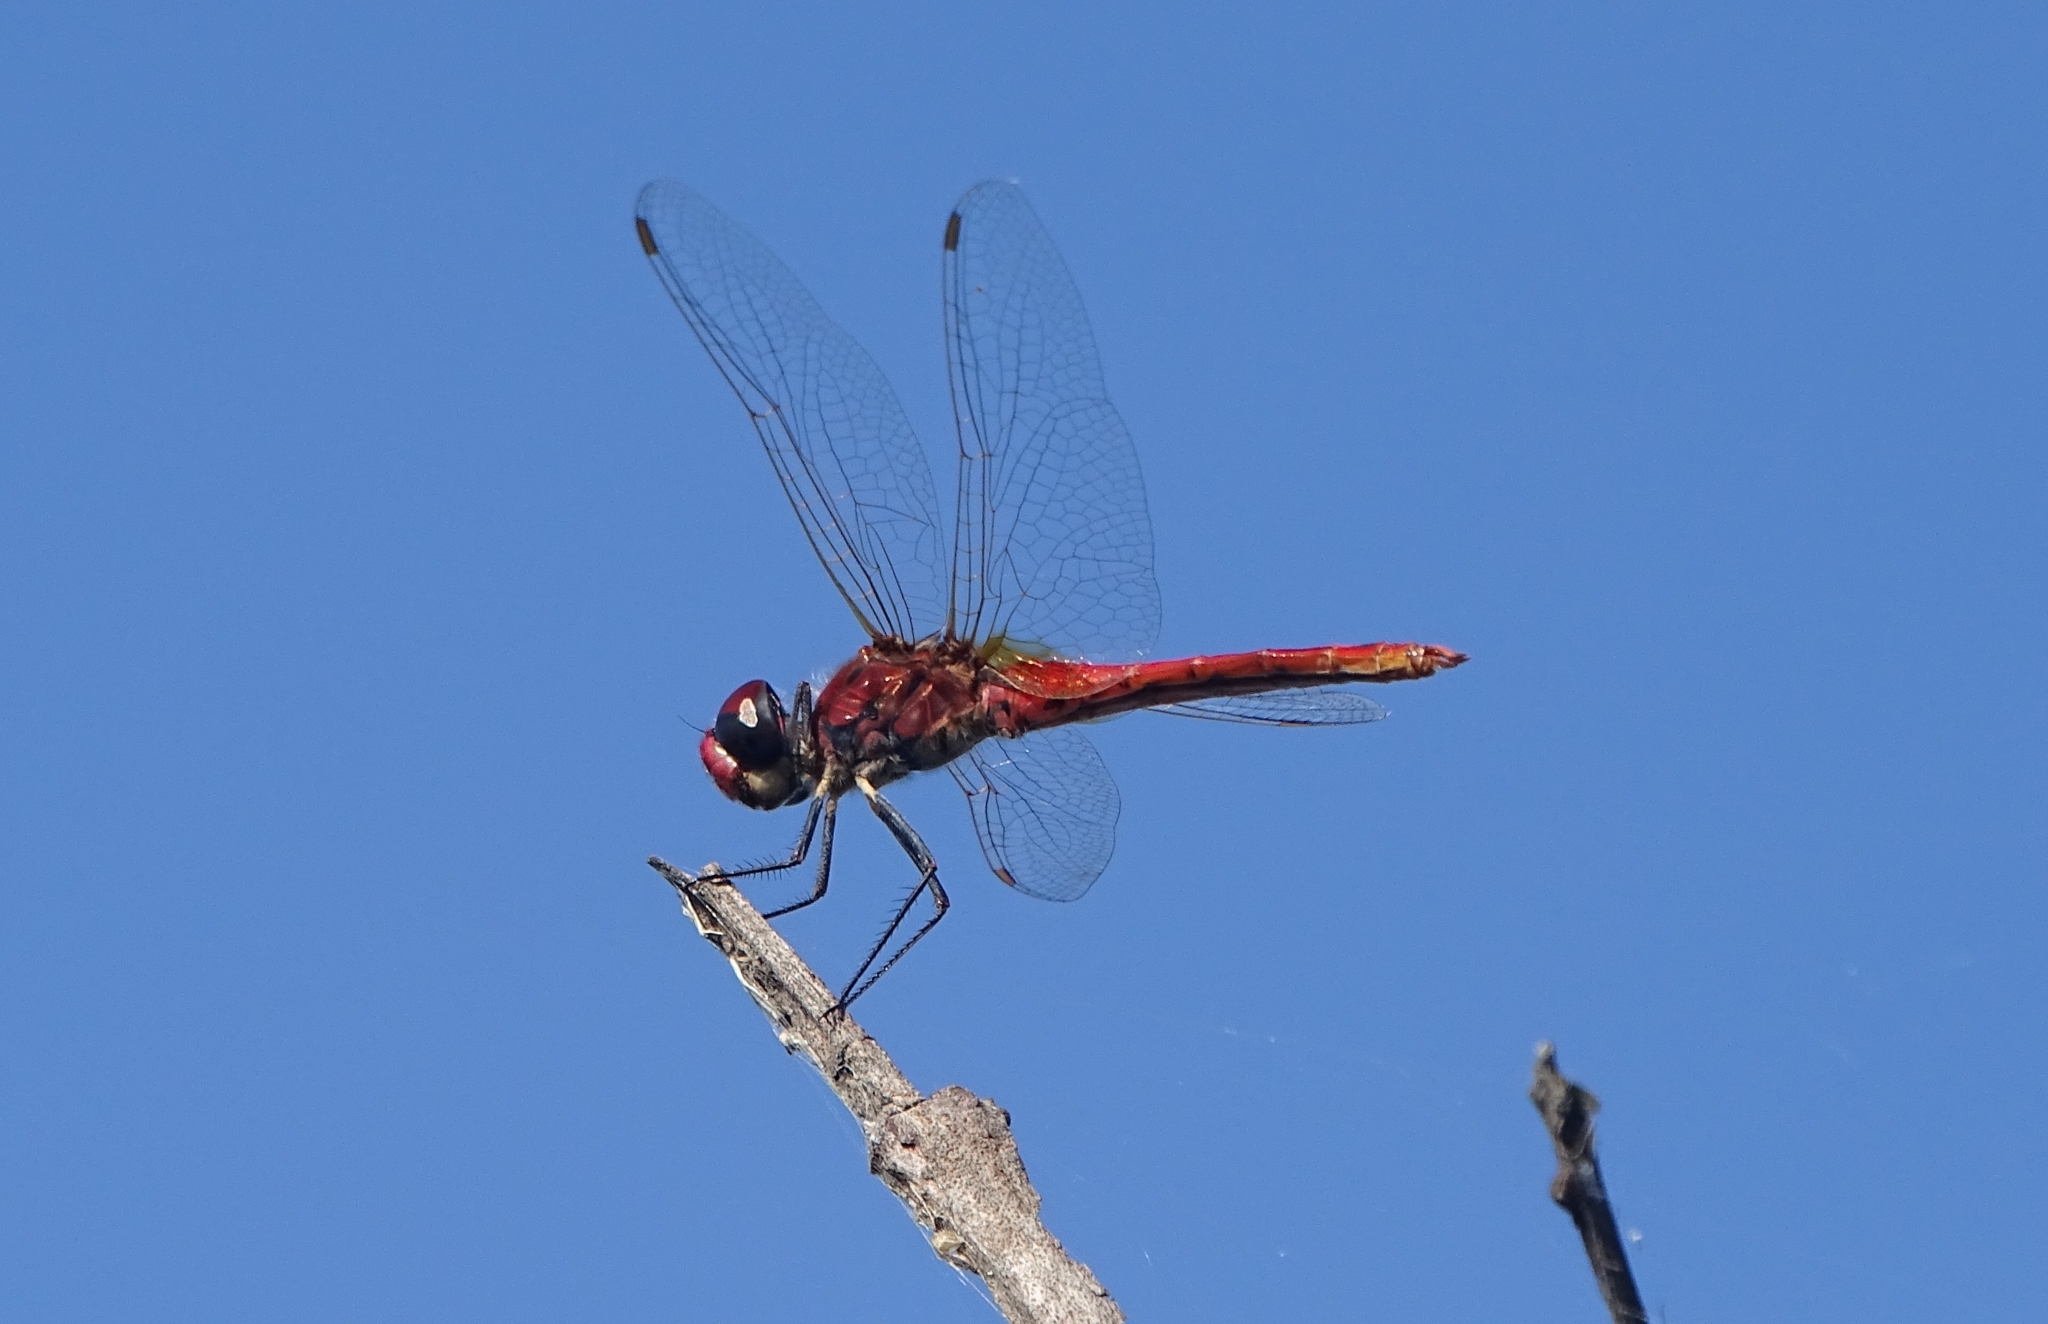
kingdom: Animalia
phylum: Arthropoda
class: Insecta
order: Odonata
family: Libellulidae
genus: Macrodiplax
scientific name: Macrodiplax cora
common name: Coastal glider
